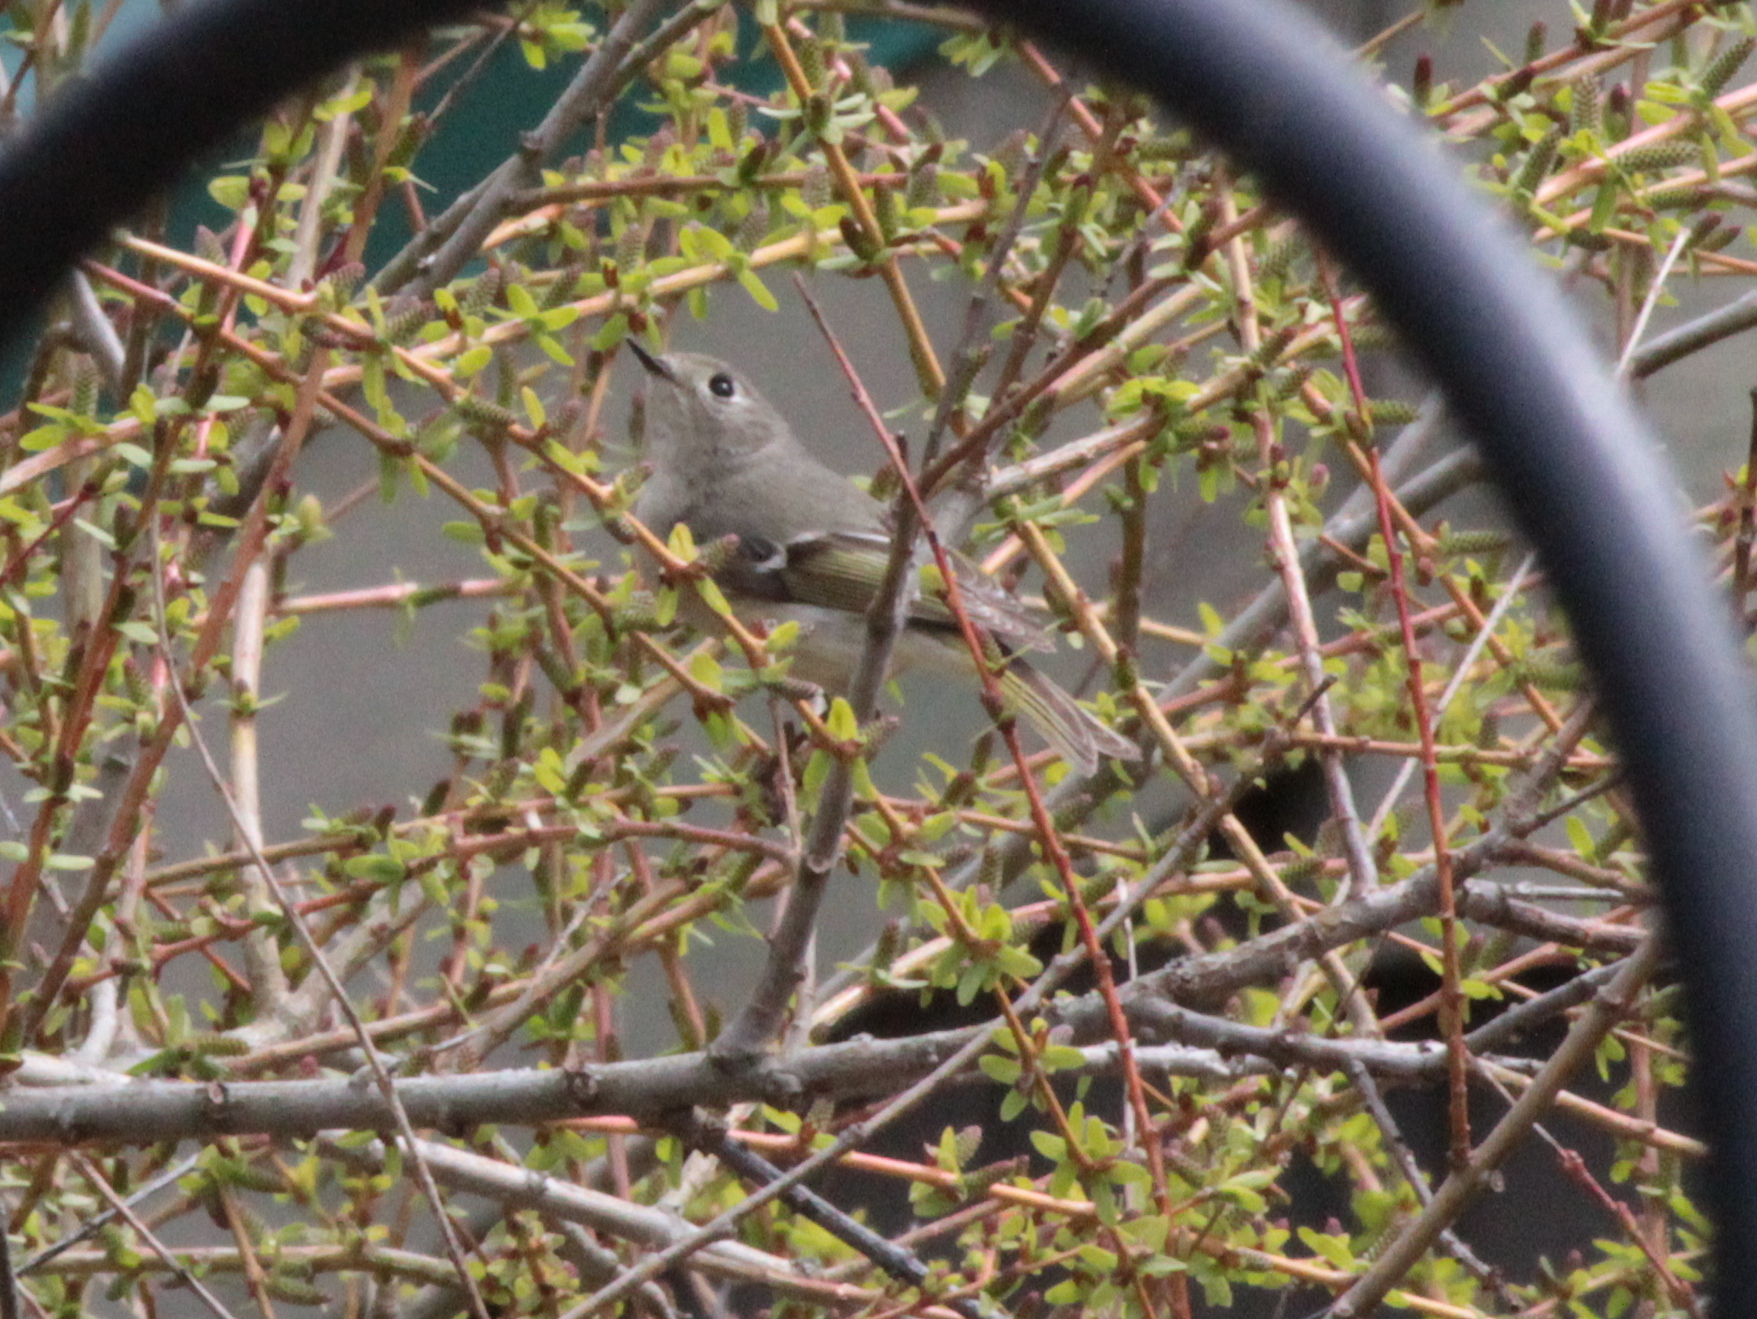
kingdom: Animalia
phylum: Chordata
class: Aves
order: Passeriformes
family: Regulidae
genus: Regulus
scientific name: Regulus calendula
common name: Ruby-crowned kinglet
